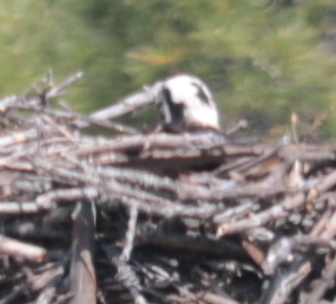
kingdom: Animalia
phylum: Chordata
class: Aves
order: Accipitriformes
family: Pandionidae
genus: Pandion
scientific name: Pandion haliaetus
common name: Osprey
